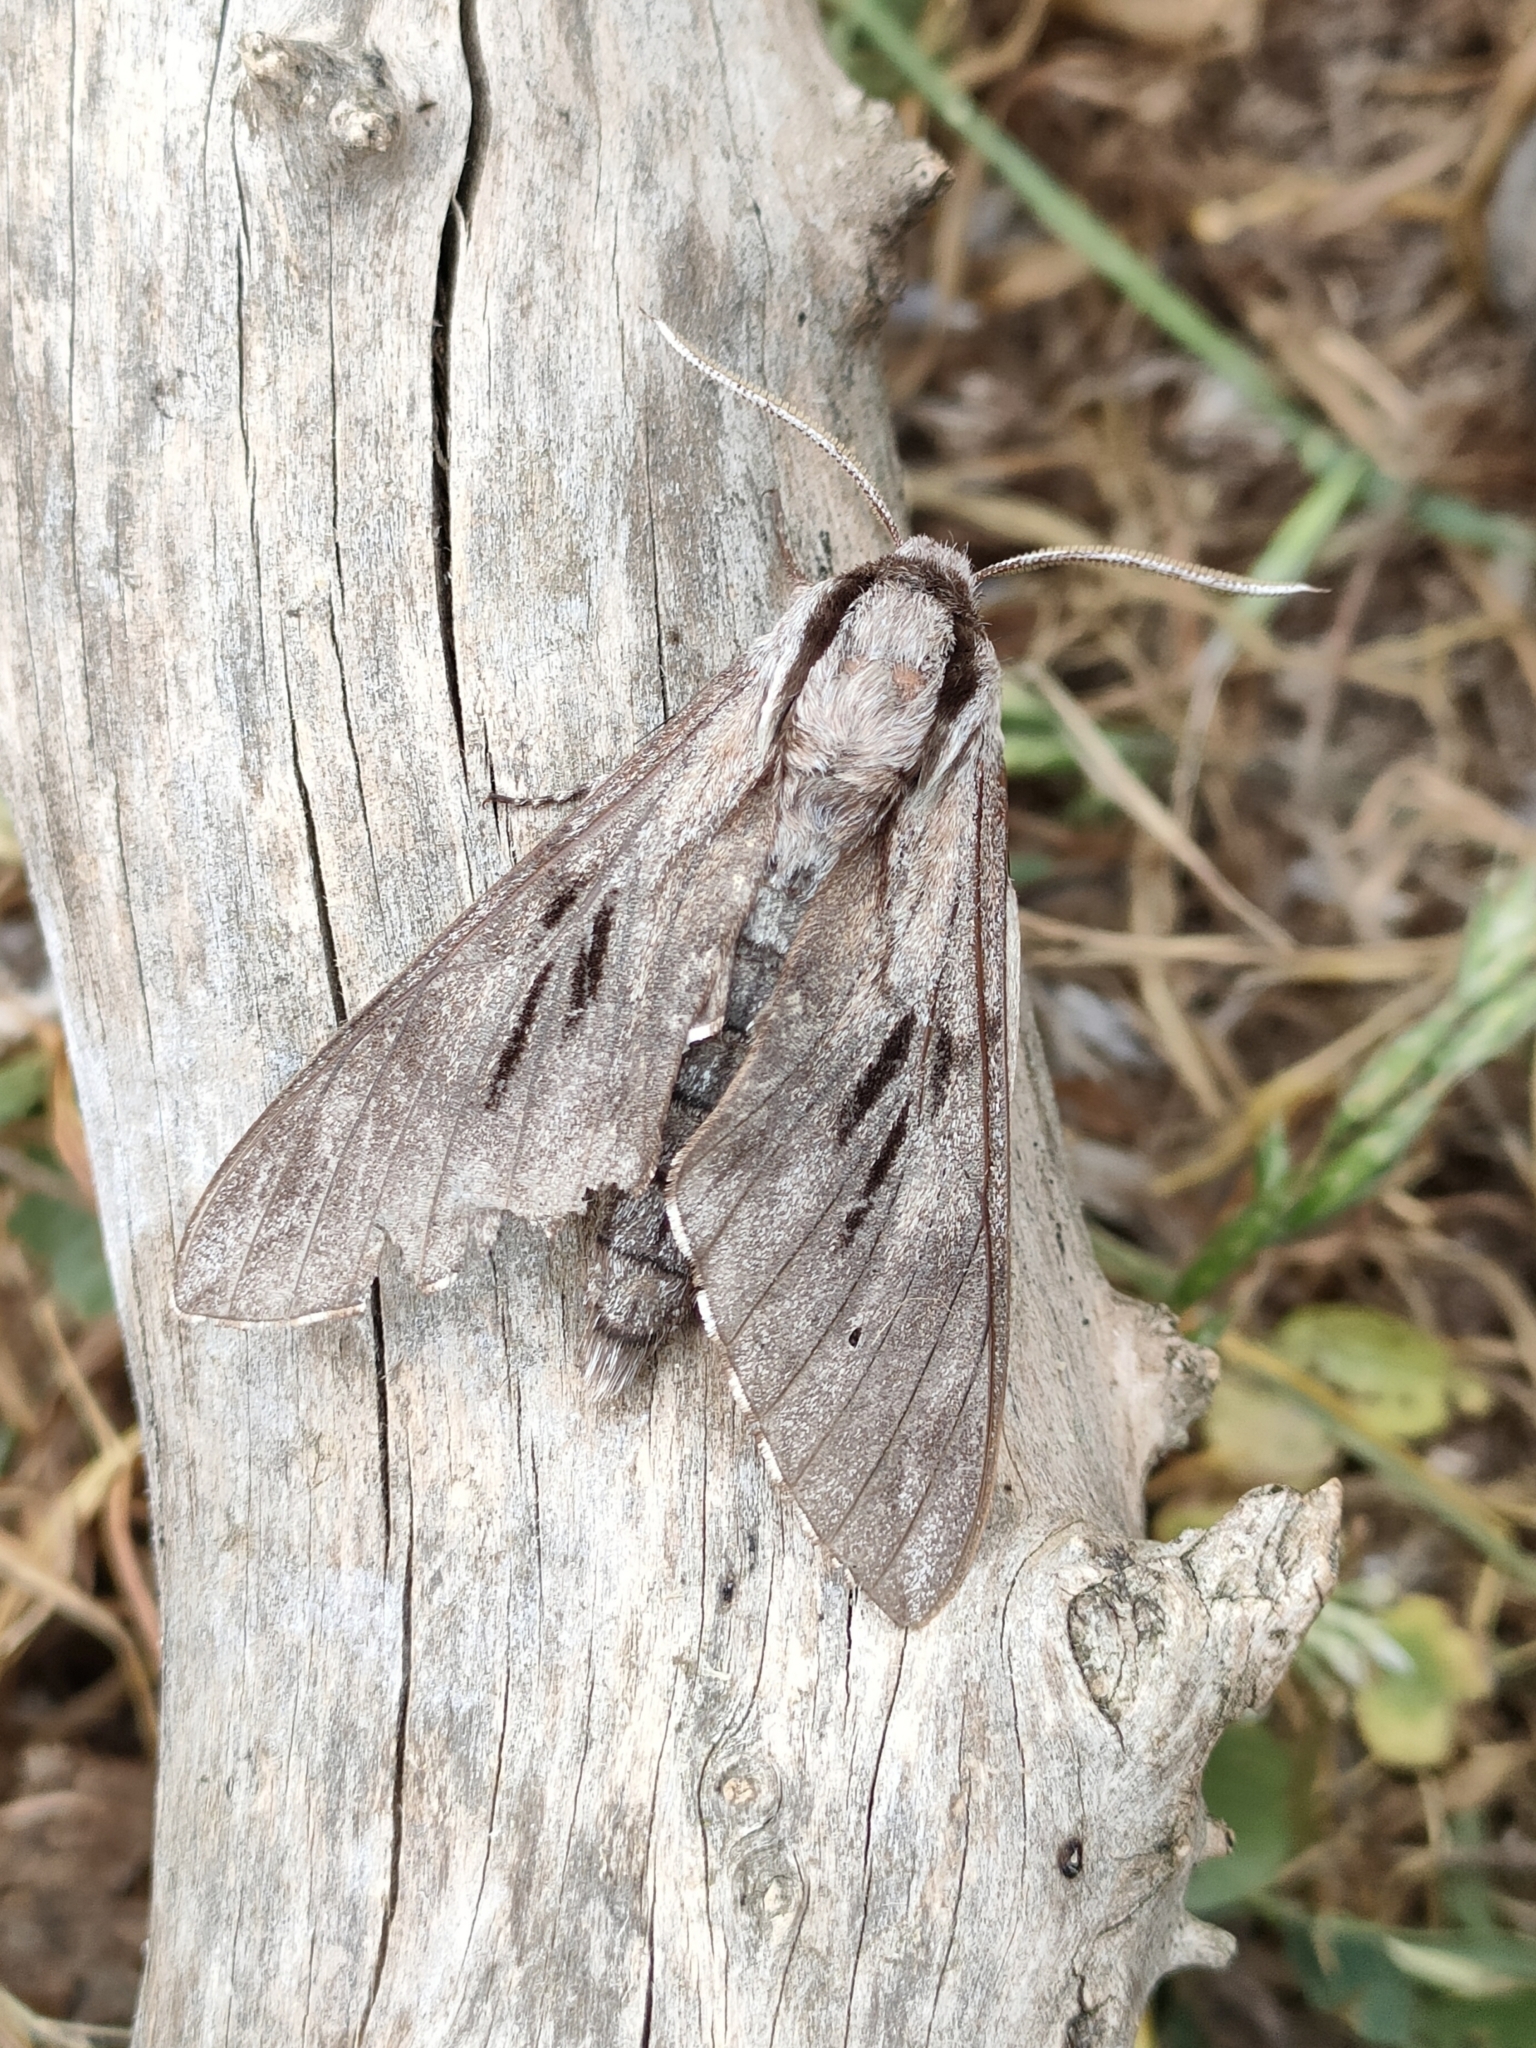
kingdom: Animalia
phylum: Arthropoda
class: Insecta
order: Lepidoptera
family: Sphingidae
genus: Sphinx
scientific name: Sphinx maurorum
